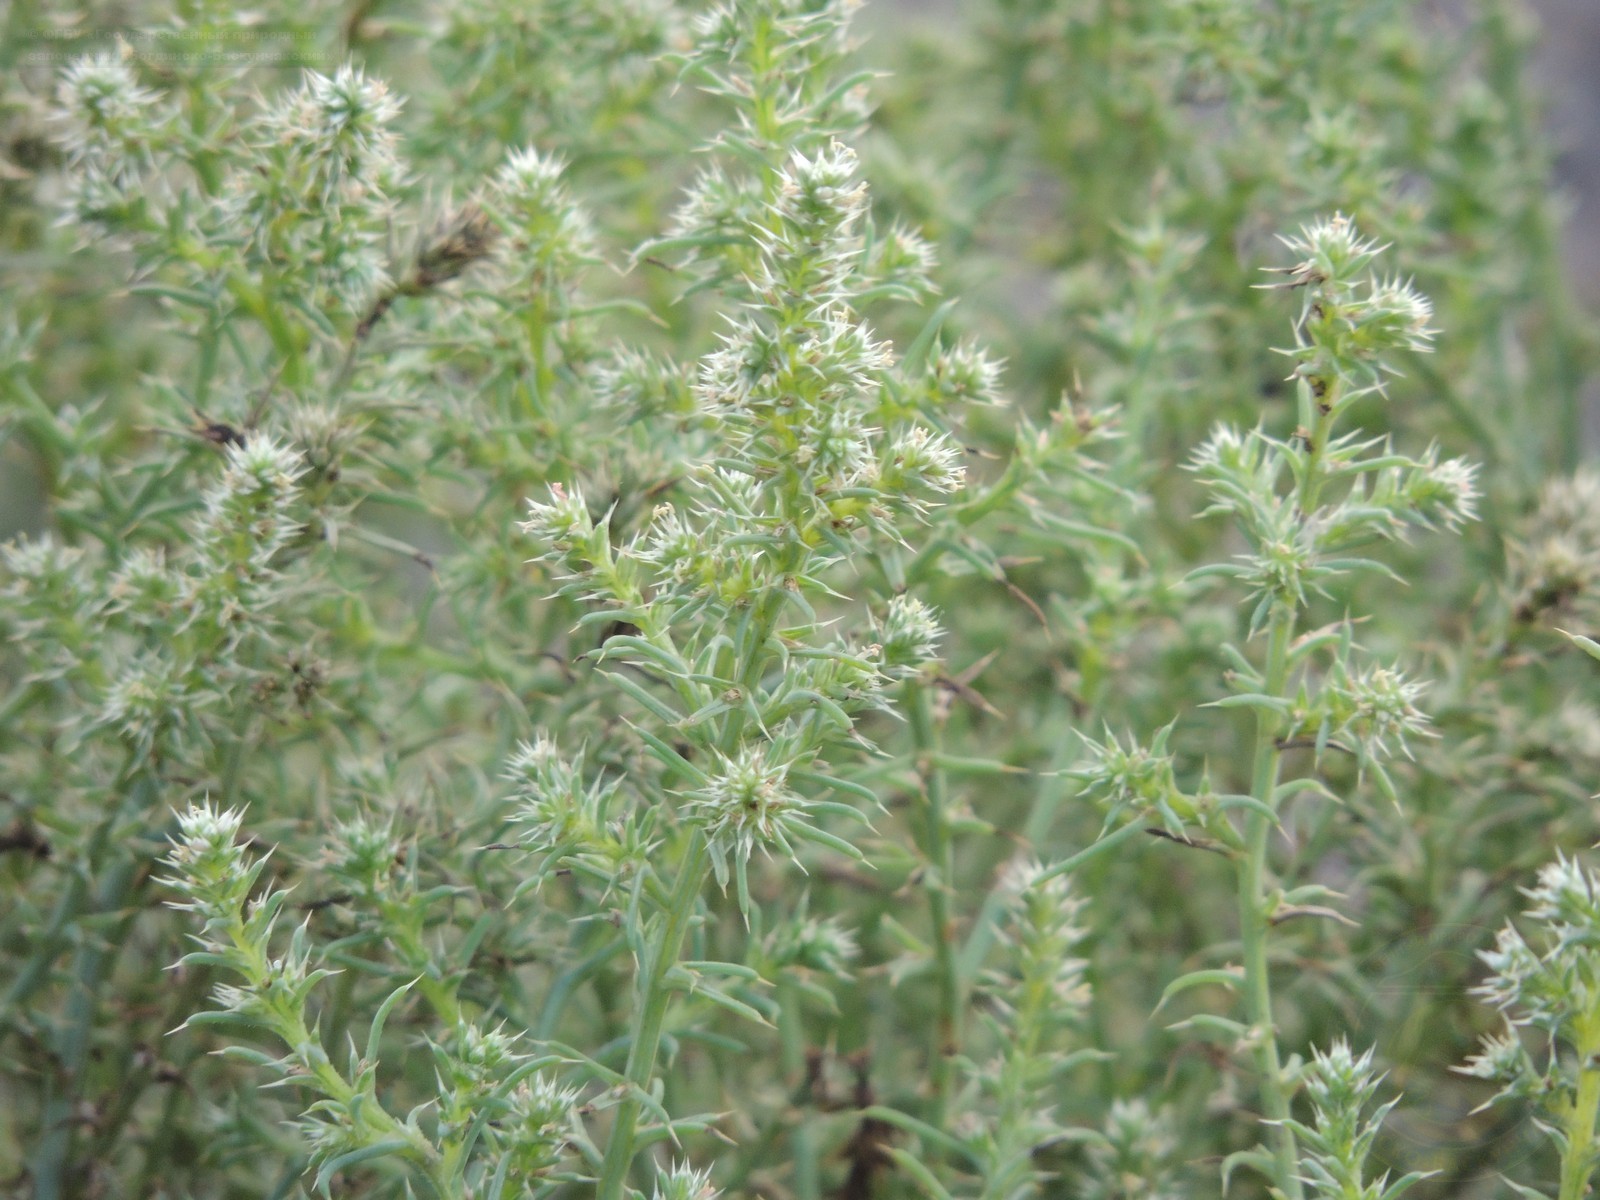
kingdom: Plantae
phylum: Tracheophyta
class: Magnoliopsida
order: Caryophyllales
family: Amaranthaceae
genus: Salsola
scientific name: Salsola paulsenii
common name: Barbwire russian thistle
